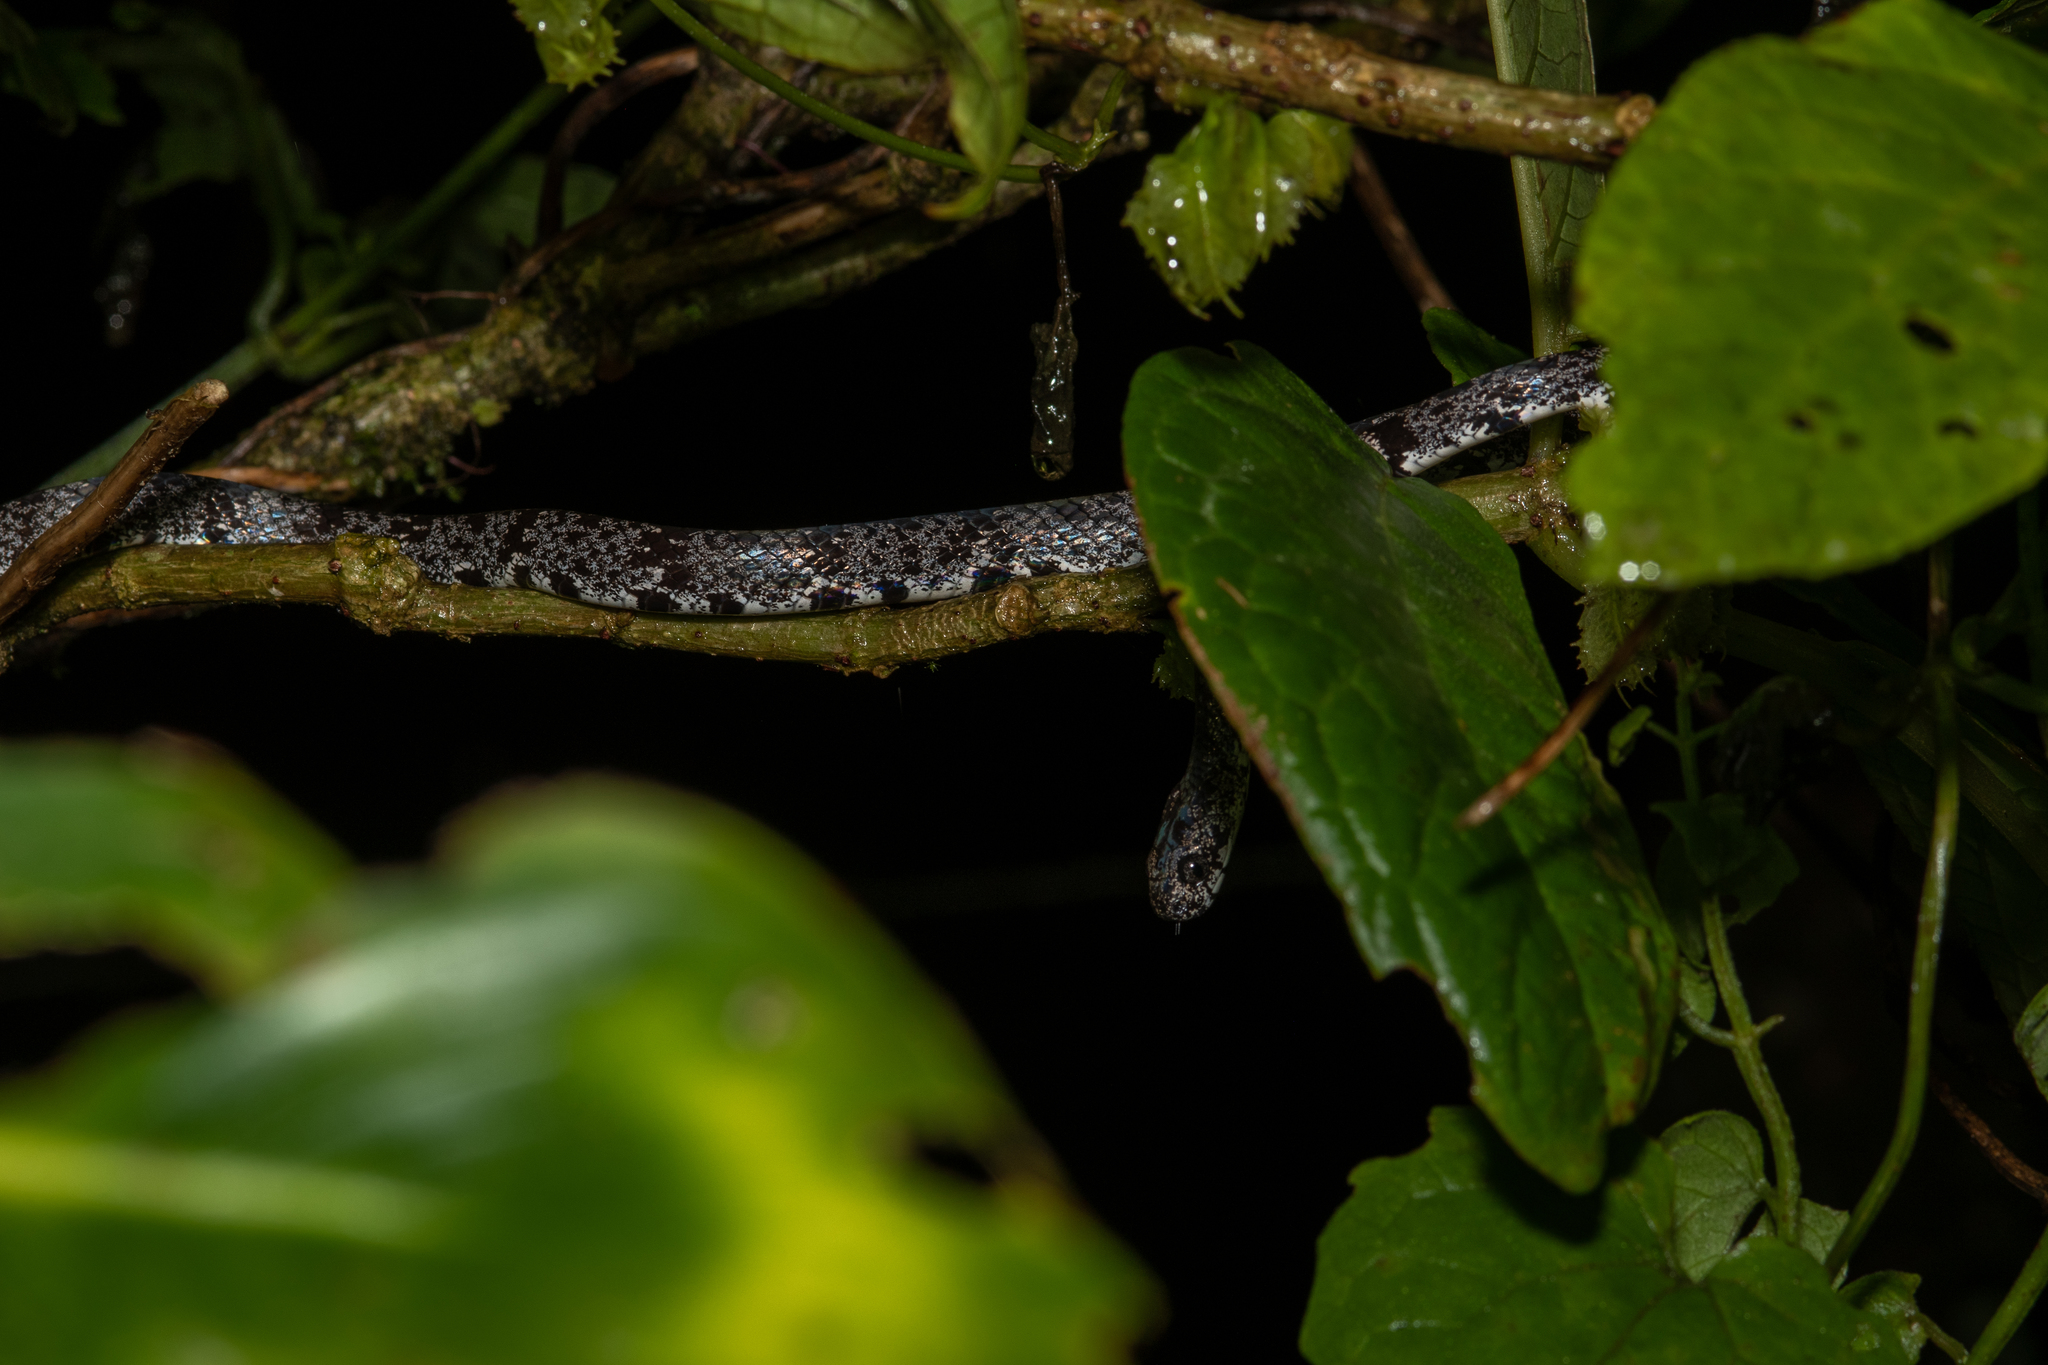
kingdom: Animalia
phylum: Chordata
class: Squamata
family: Colubridae
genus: Sibon
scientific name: Sibon nebulatus
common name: Cloudy snail-eating snake
